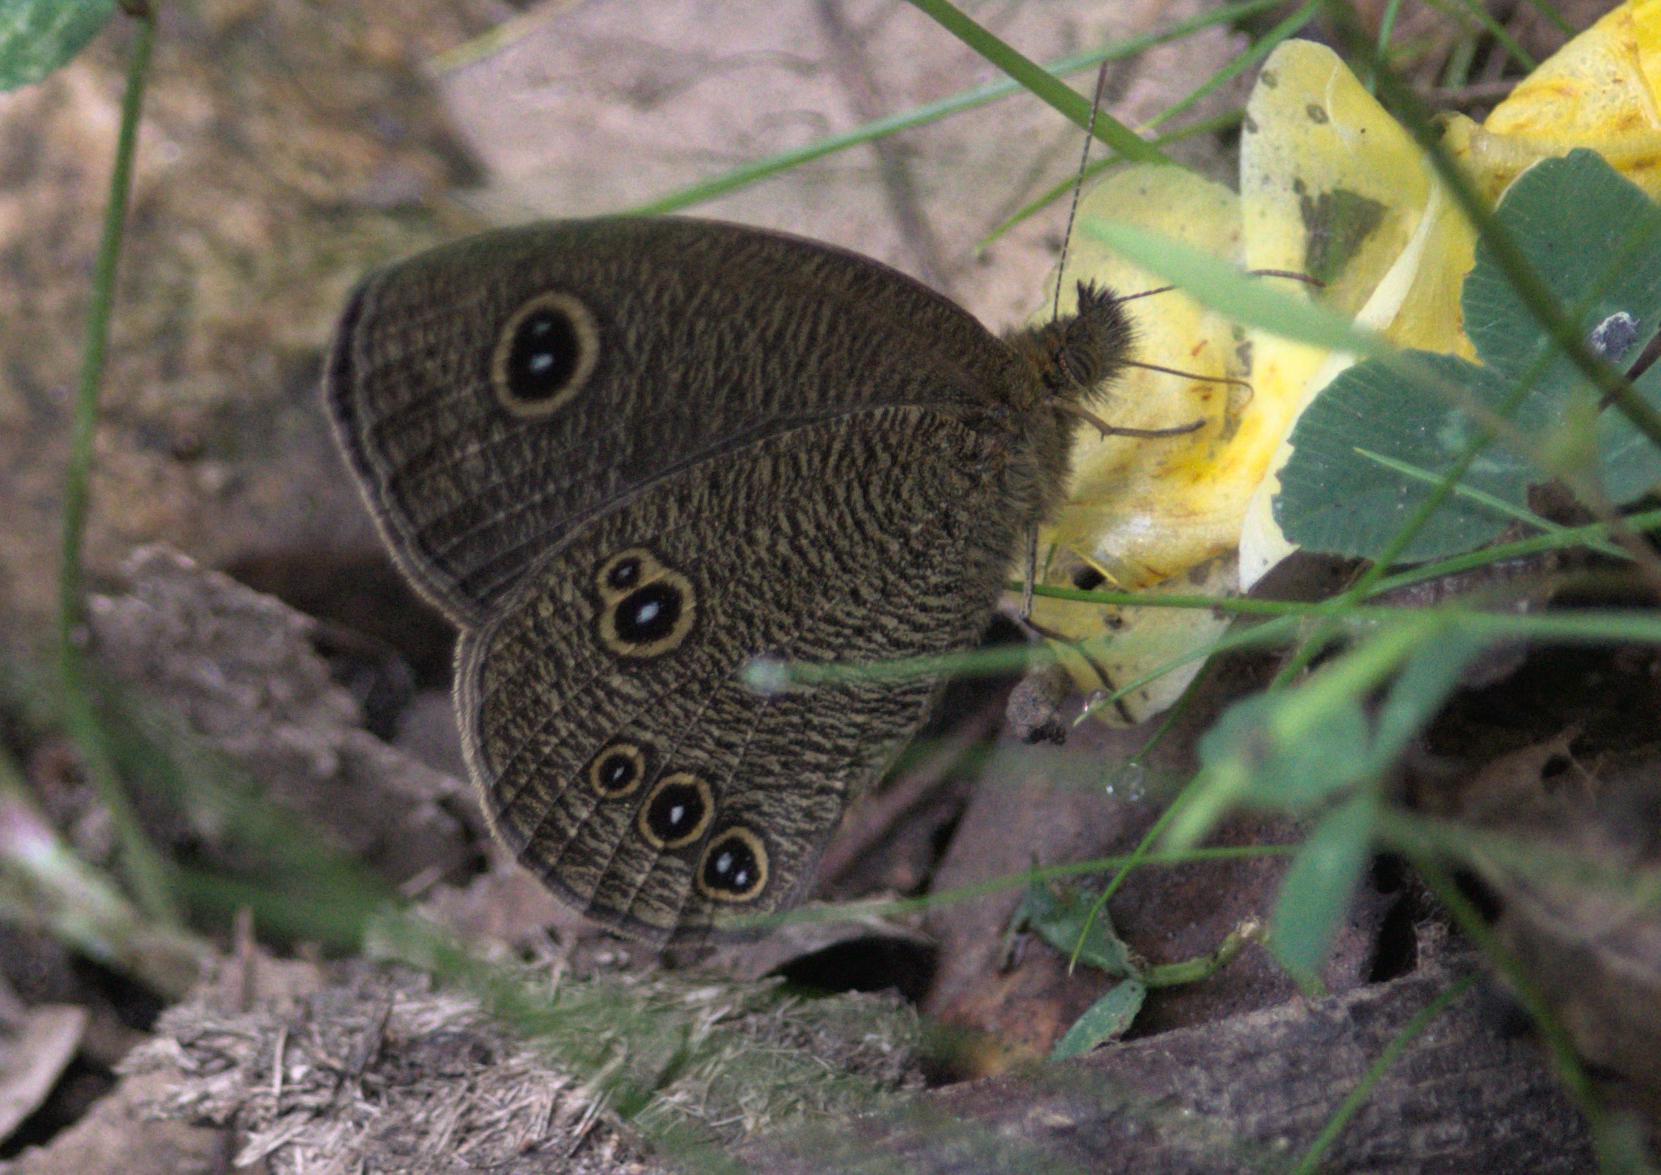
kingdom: Animalia
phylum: Arthropoda
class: Insecta
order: Lepidoptera
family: Nymphalidae
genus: Ypthima
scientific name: Ypthima nikaea
